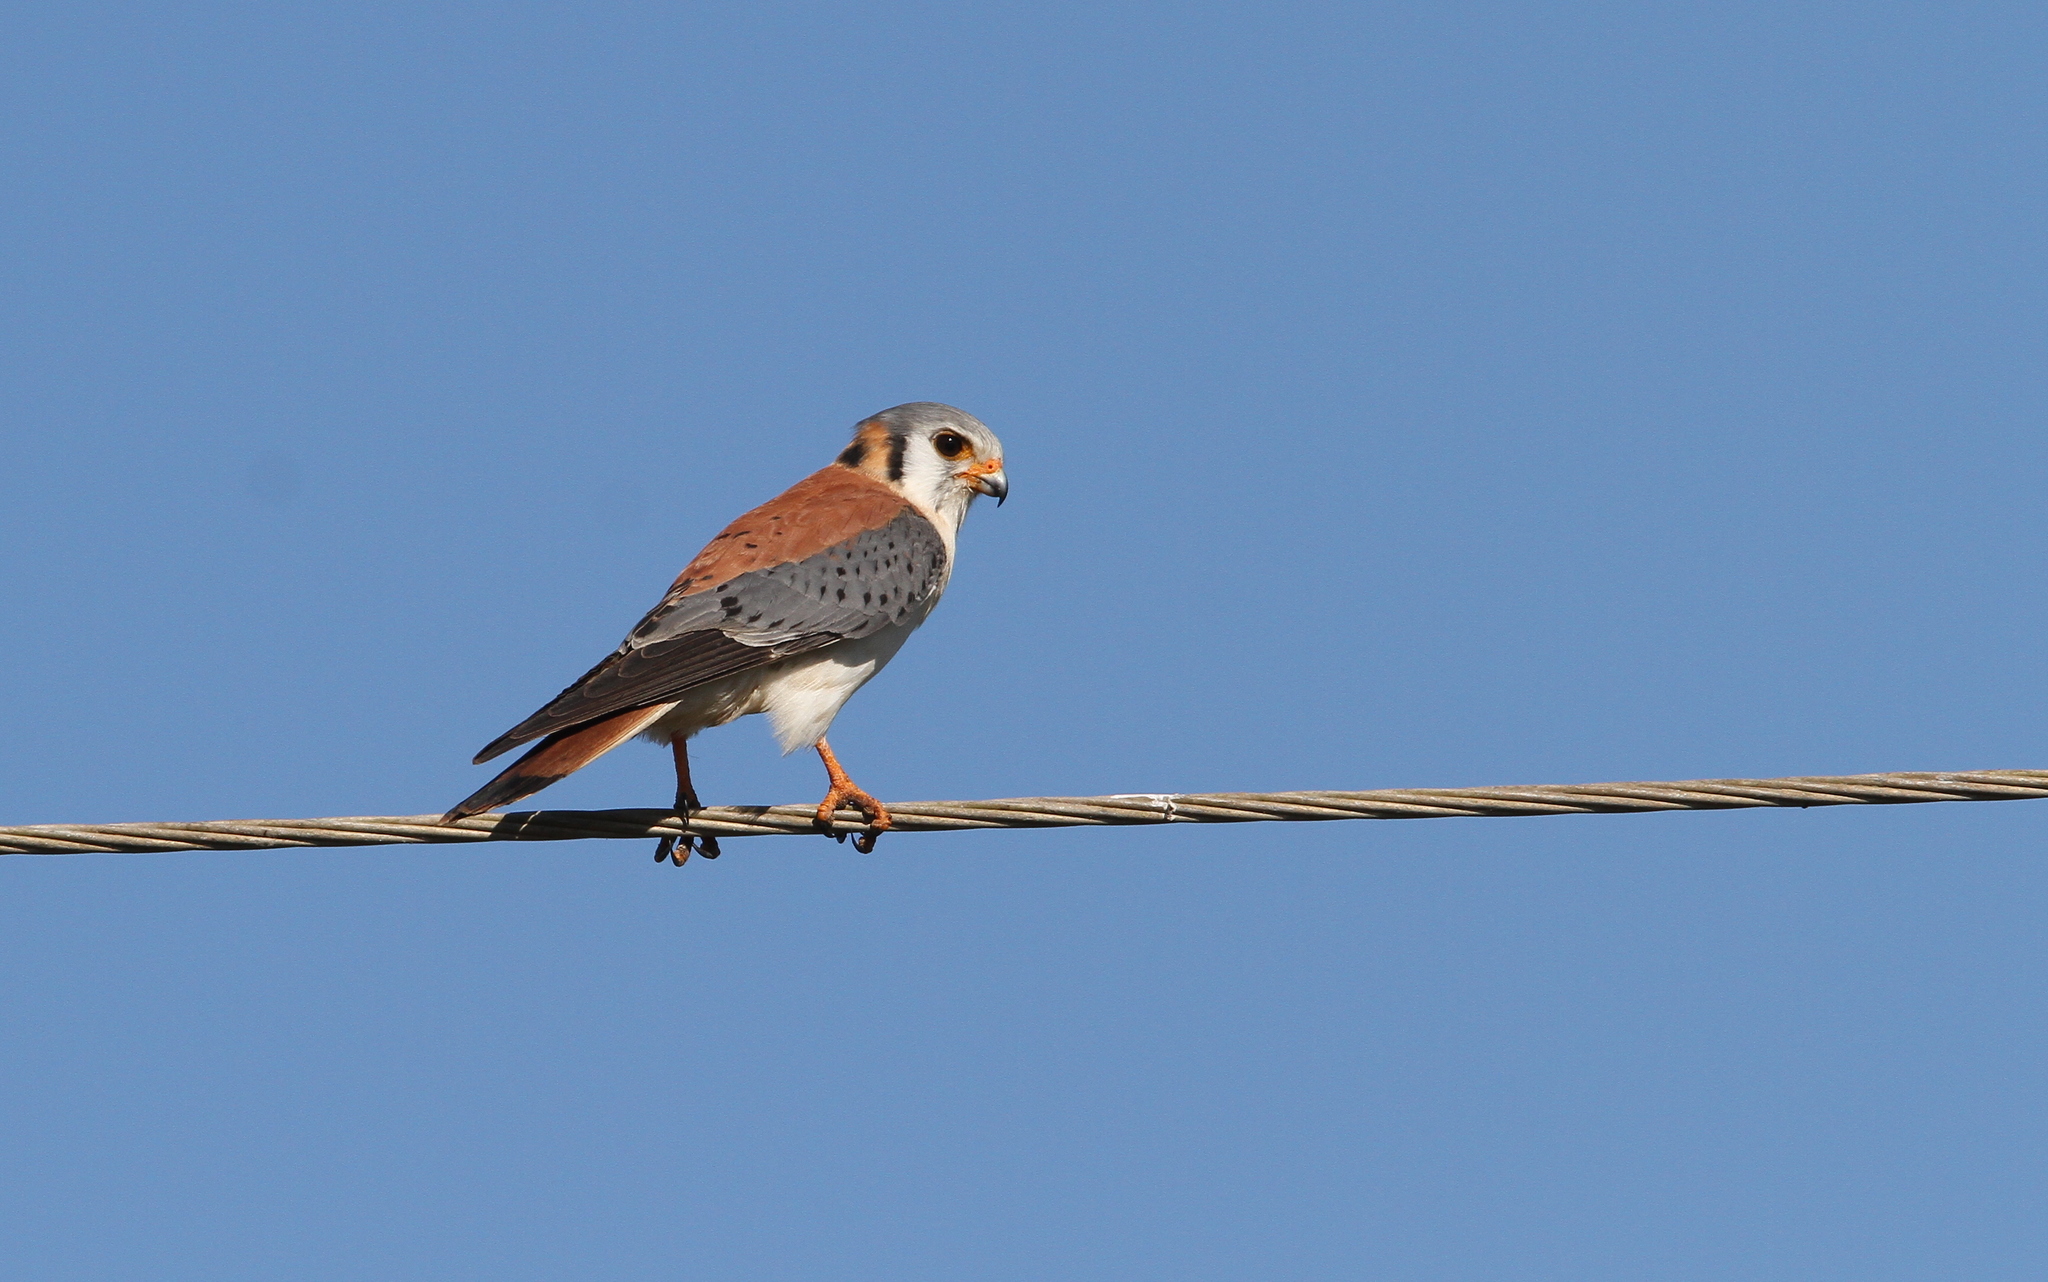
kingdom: Animalia
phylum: Chordata
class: Aves
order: Falconiformes
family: Falconidae
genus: Falco
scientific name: Falco sparverius
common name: American kestrel
